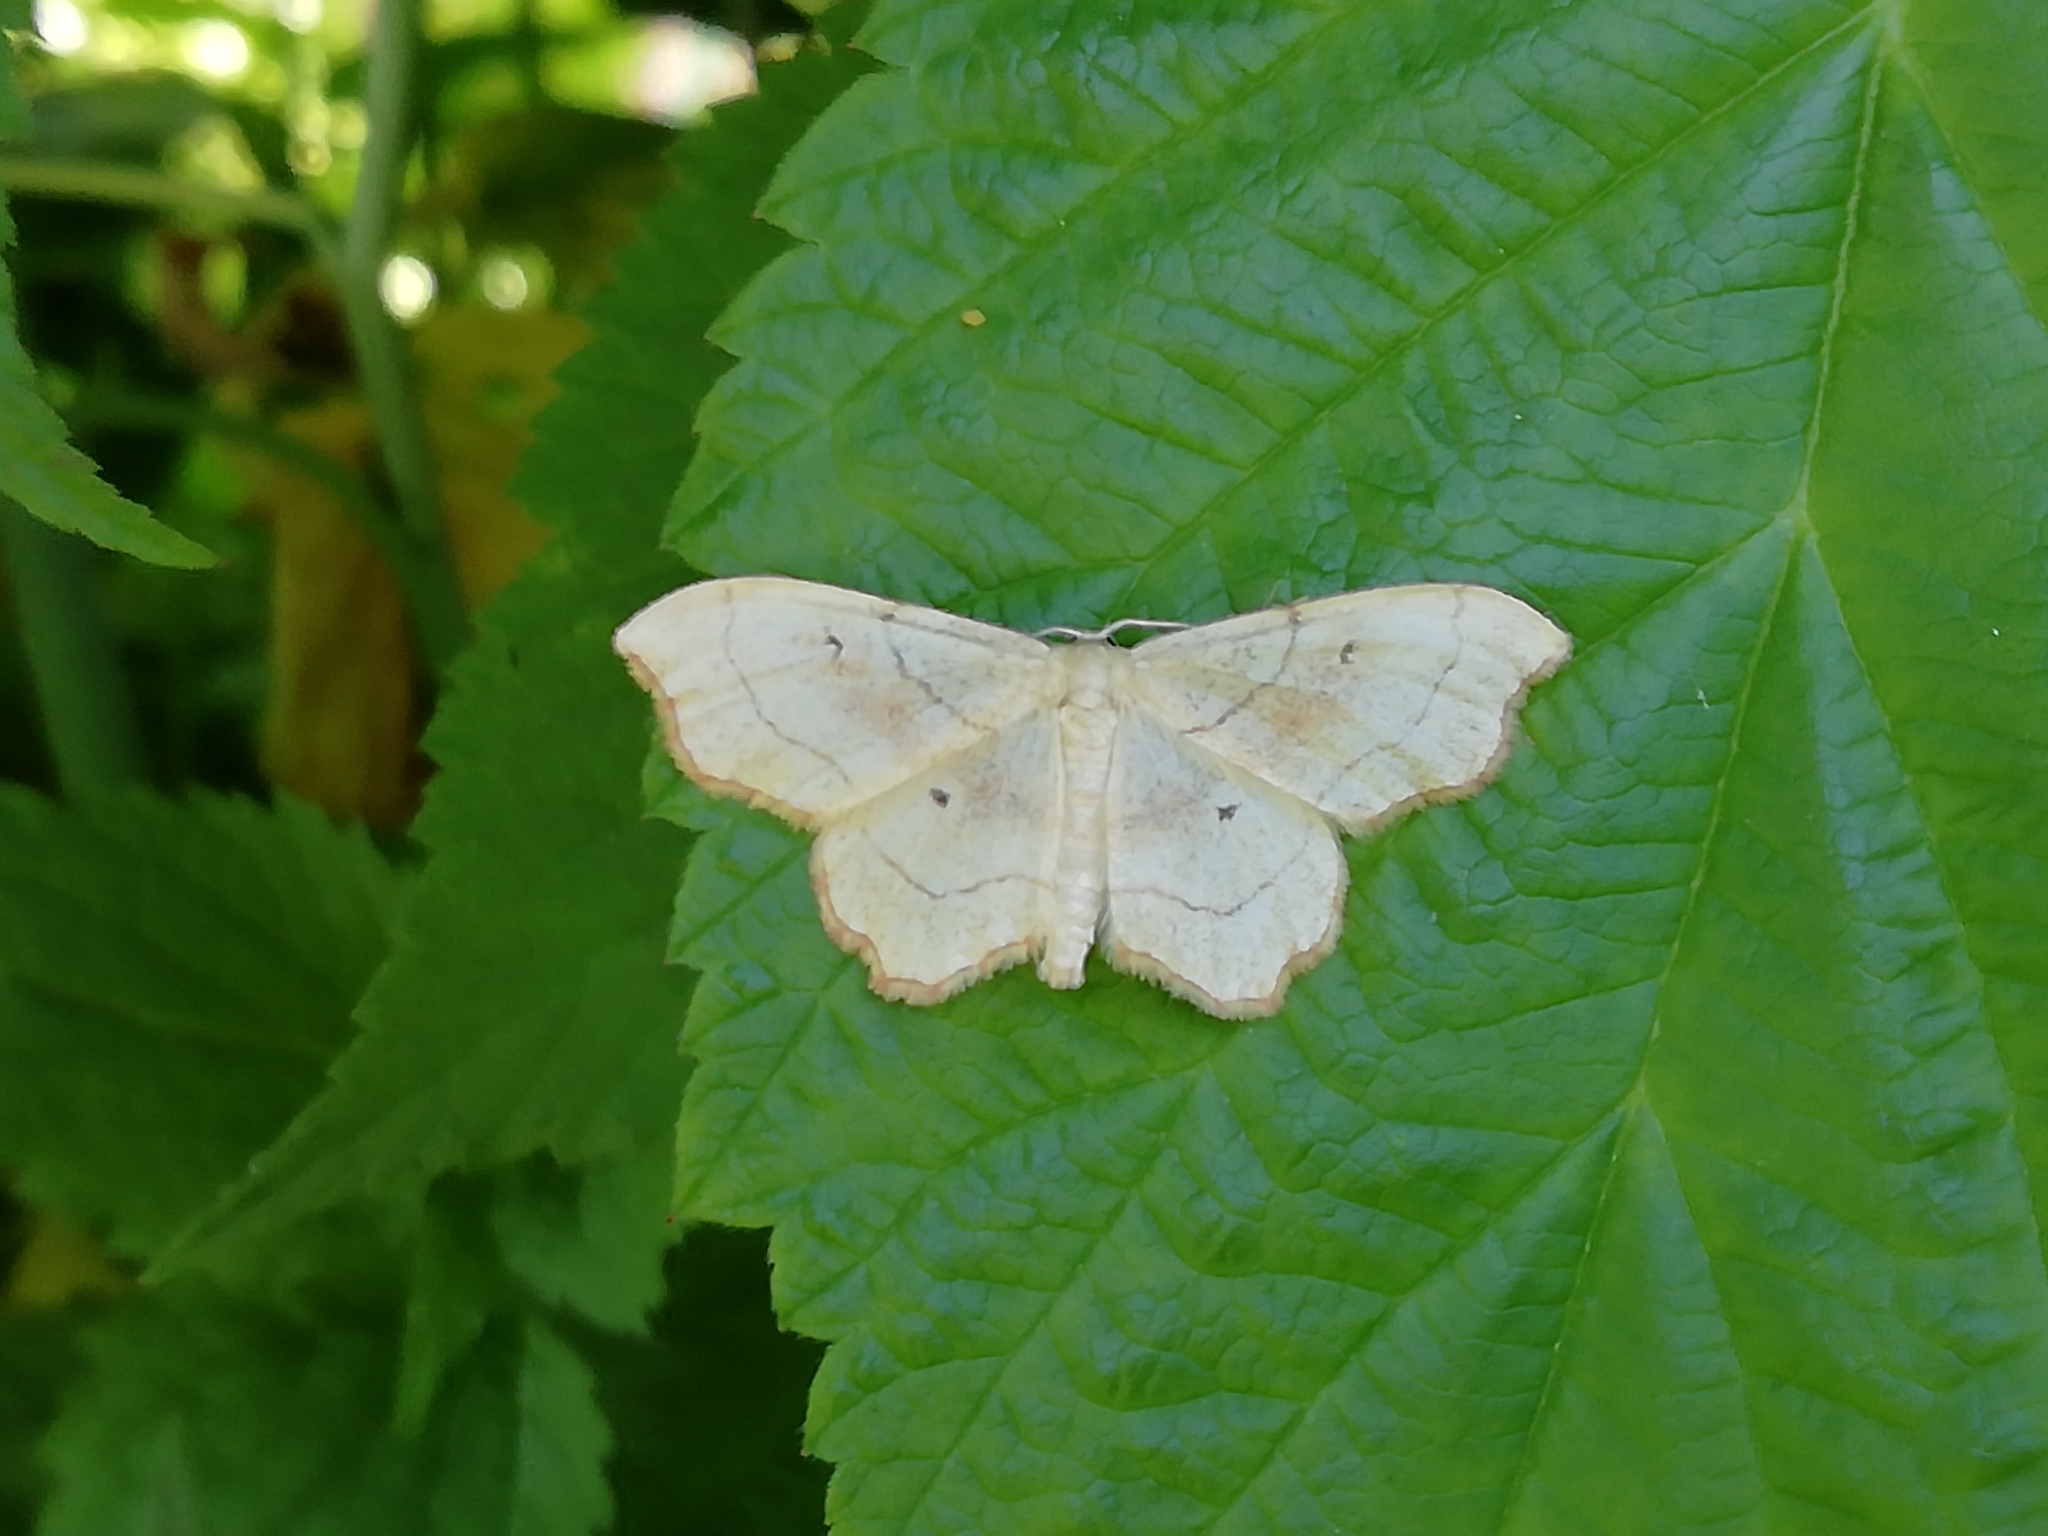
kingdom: Animalia
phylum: Arthropoda
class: Insecta
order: Lepidoptera
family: Geometridae
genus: Idaea
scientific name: Idaea emarginata
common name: Small scallop
